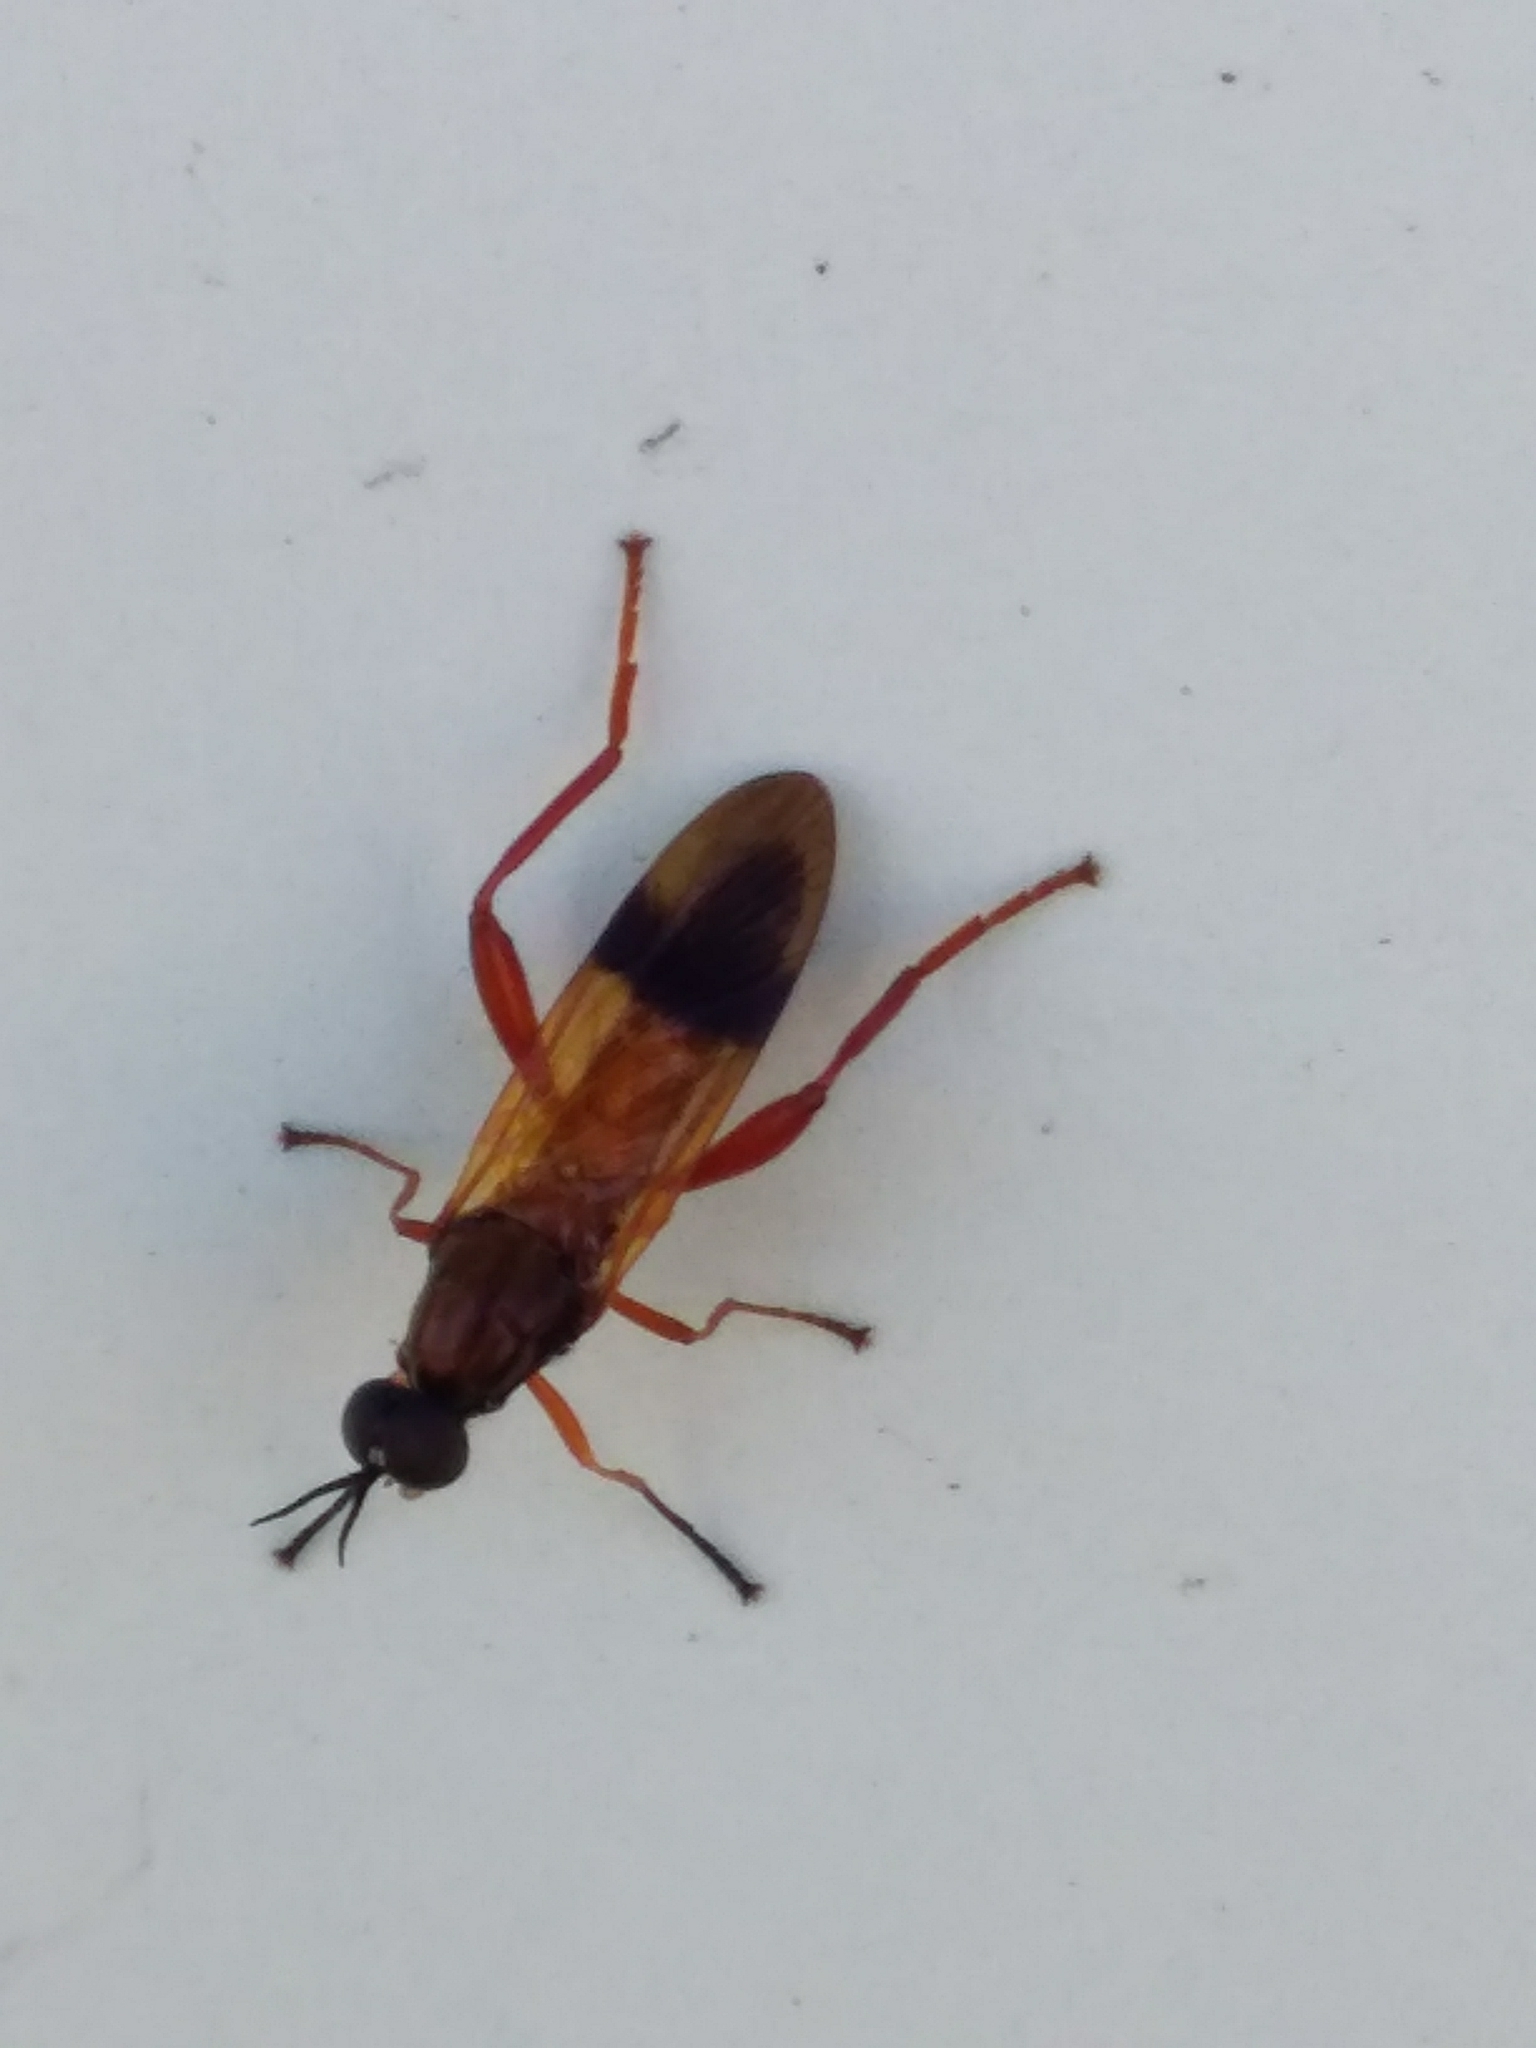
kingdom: Animalia
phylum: Arthropoda
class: Insecta
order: Diptera
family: Stratiomyidae
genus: Benhamyia
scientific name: Benhamyia apicalis
